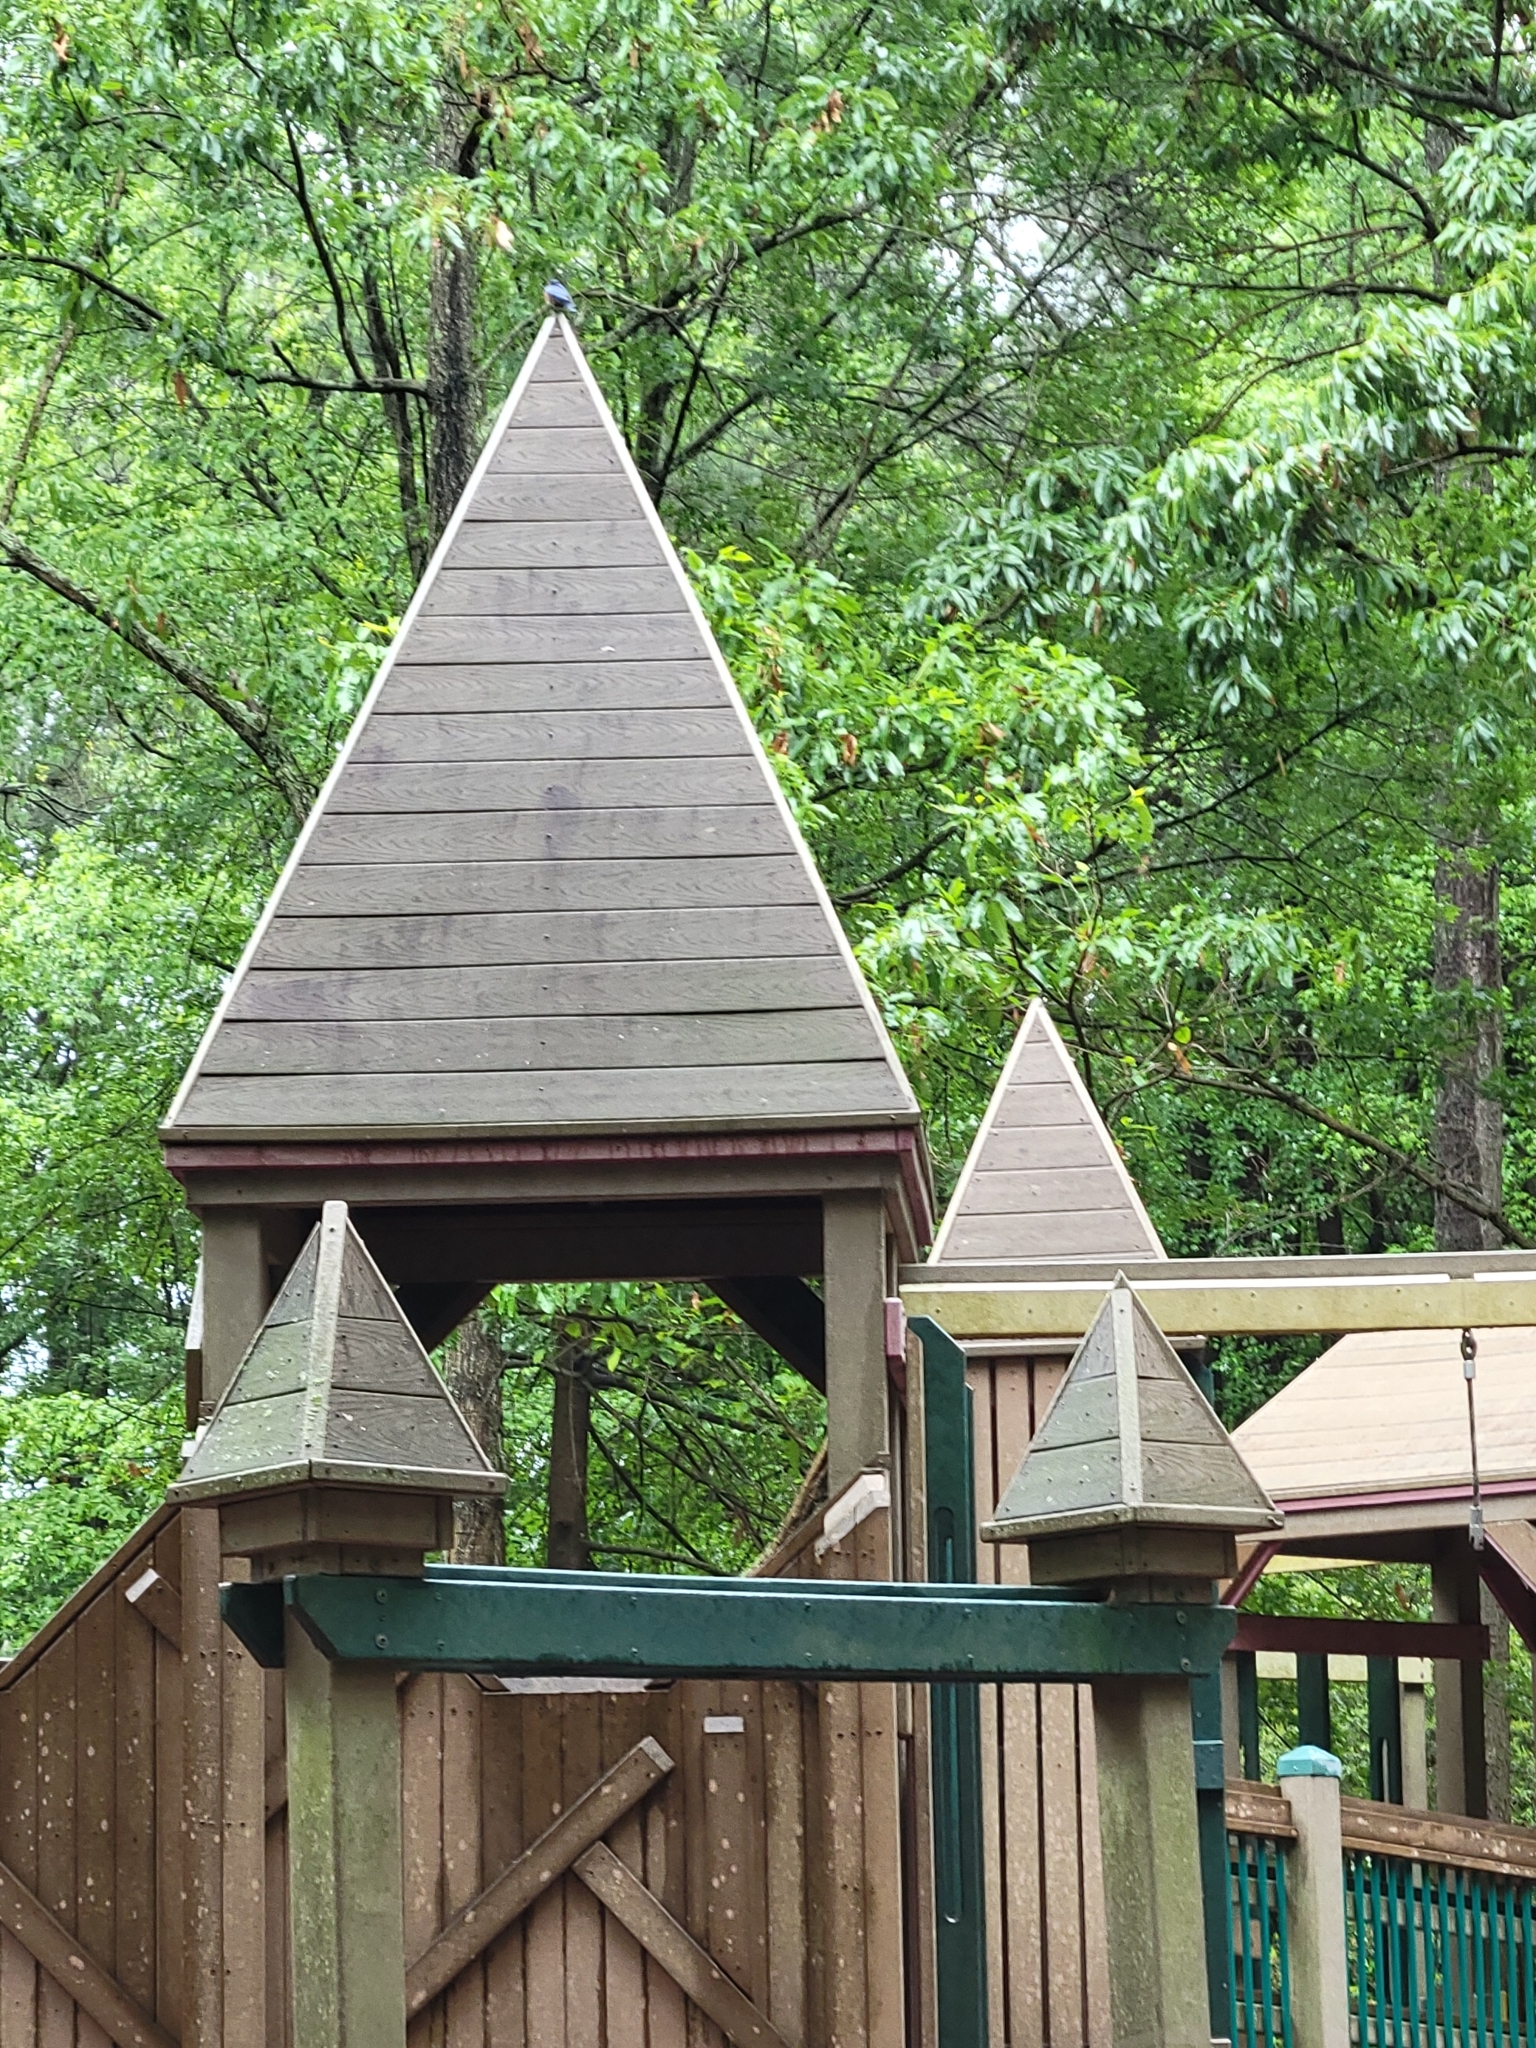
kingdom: Animalia
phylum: Chordata
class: Aves
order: Passeriformes
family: Turdidae
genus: Sialia
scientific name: Sialia sialis
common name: Eastern bluebird
